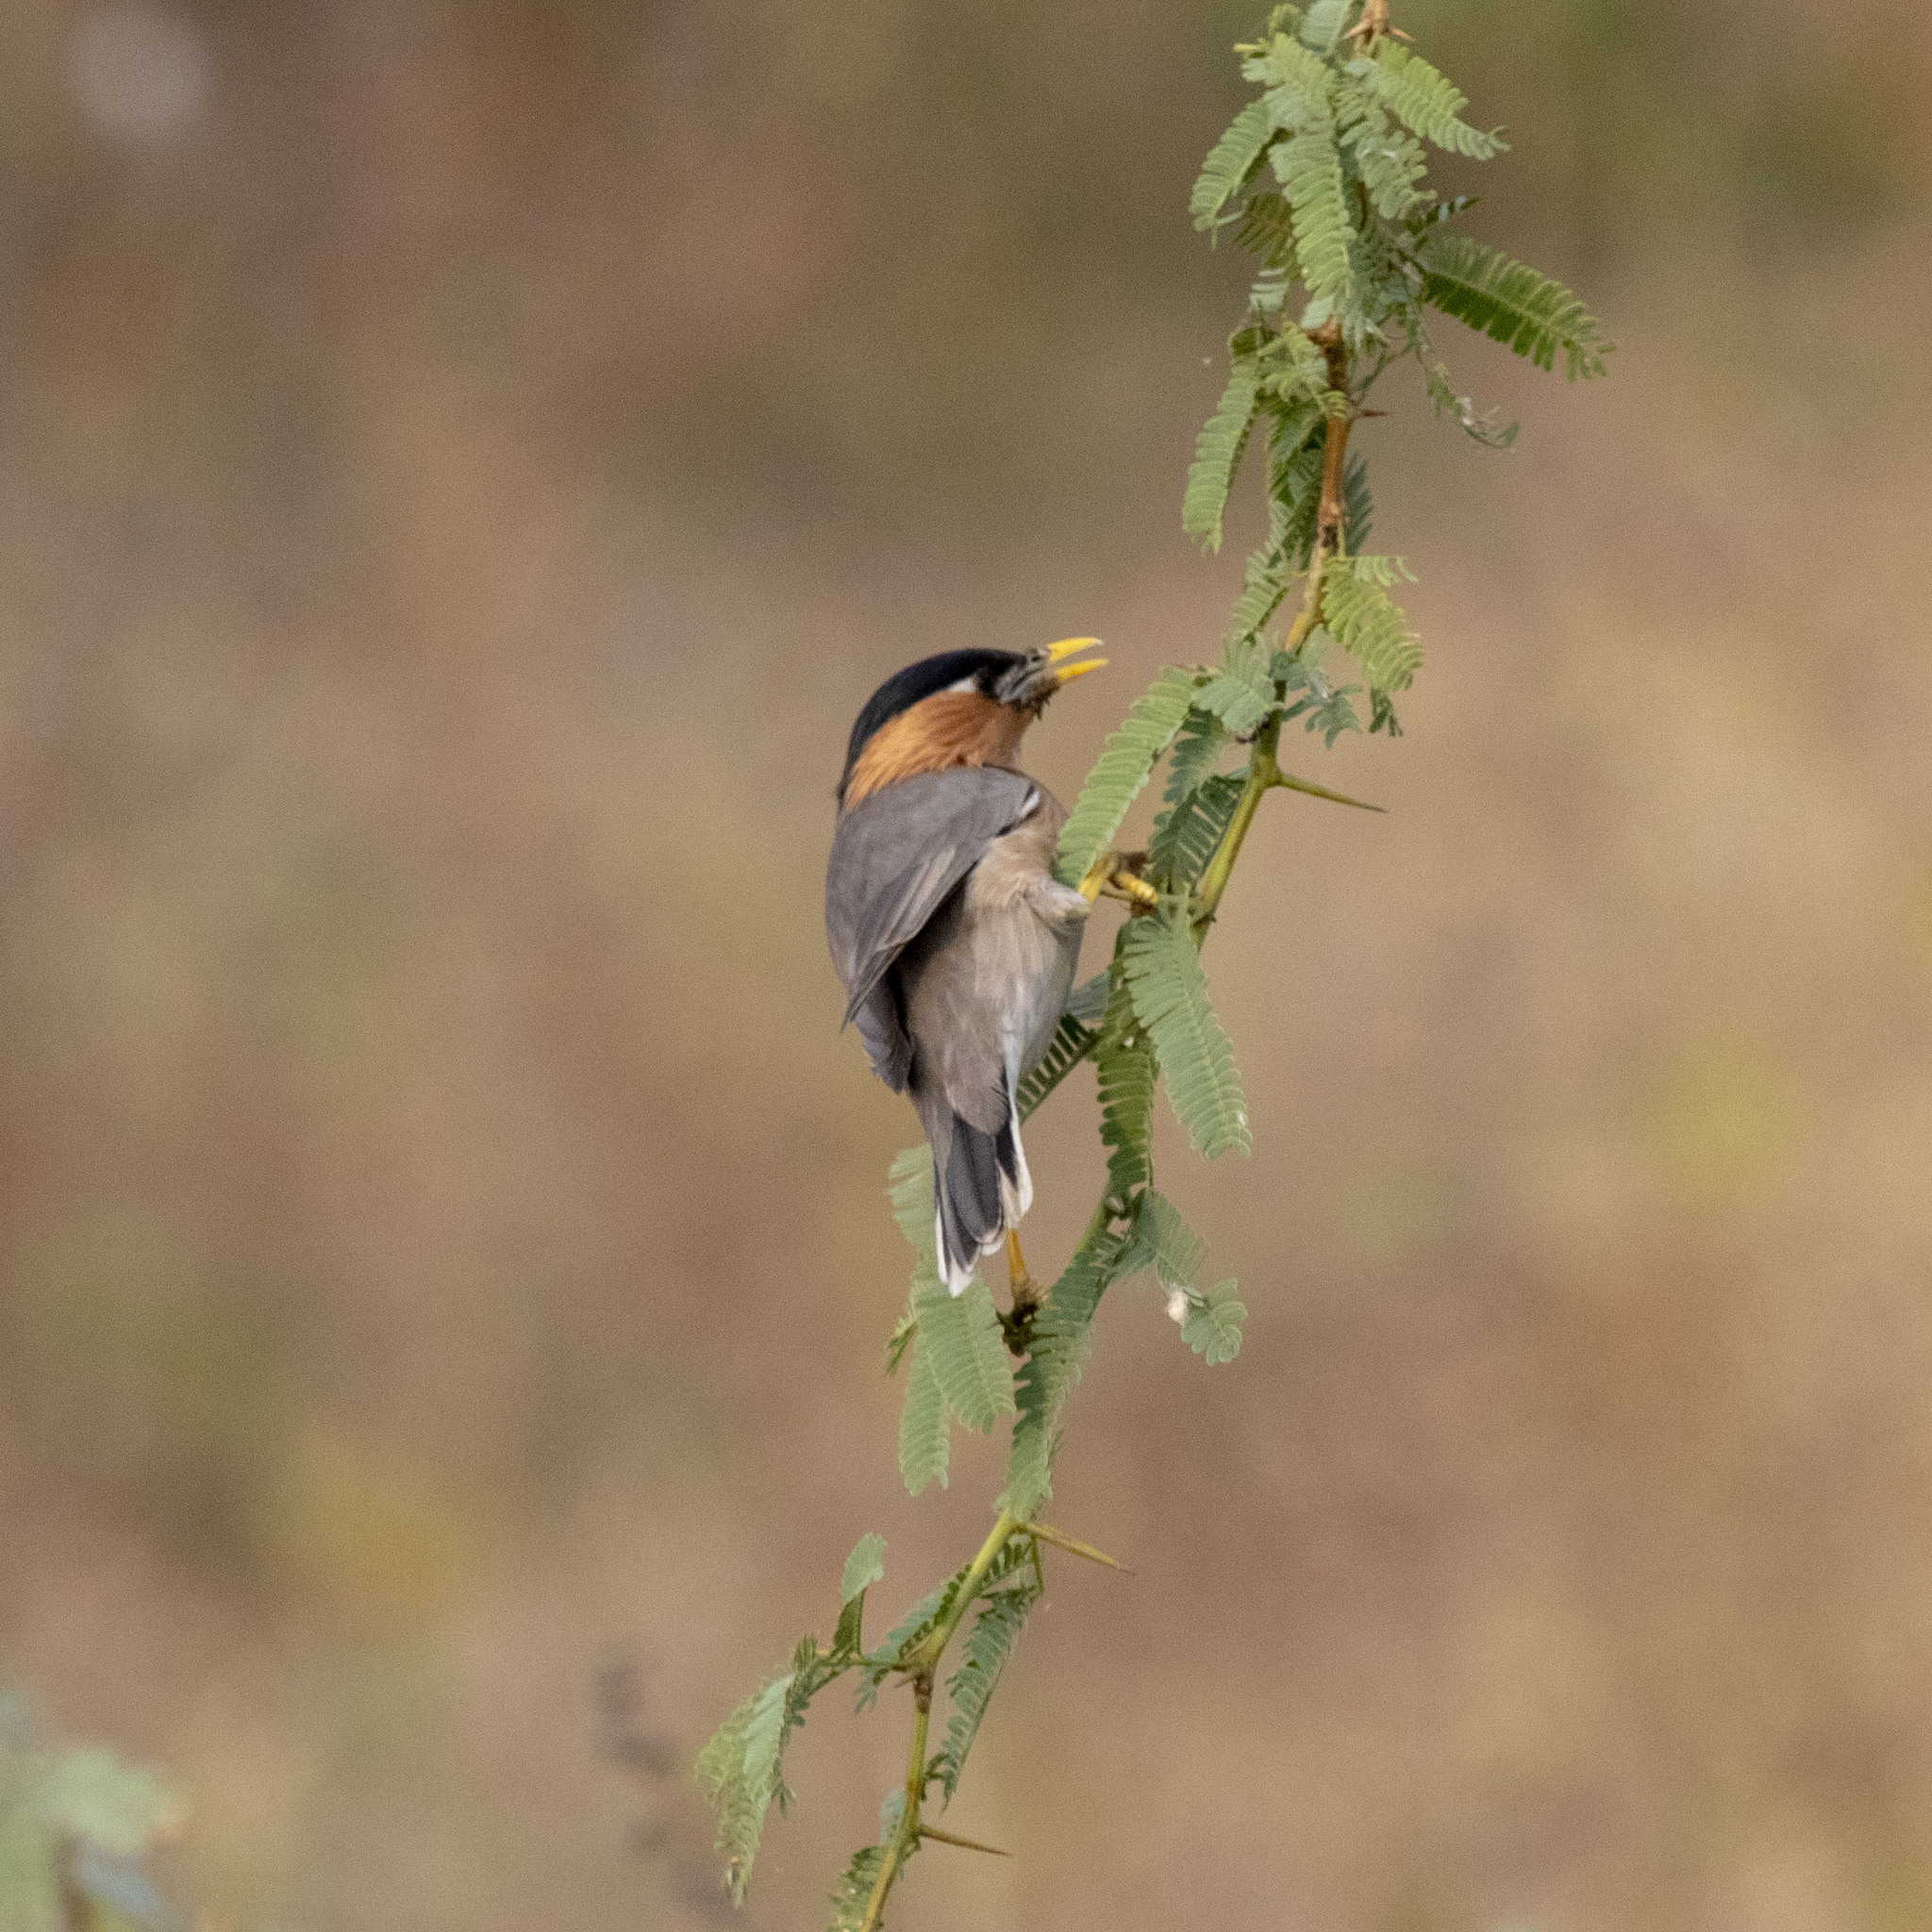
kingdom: Animalia
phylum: Chordata
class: Aves
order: Passeriformes
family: Sturnidae
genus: Sturnia
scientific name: Sturnia pagodarum
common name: Brahminy starling
